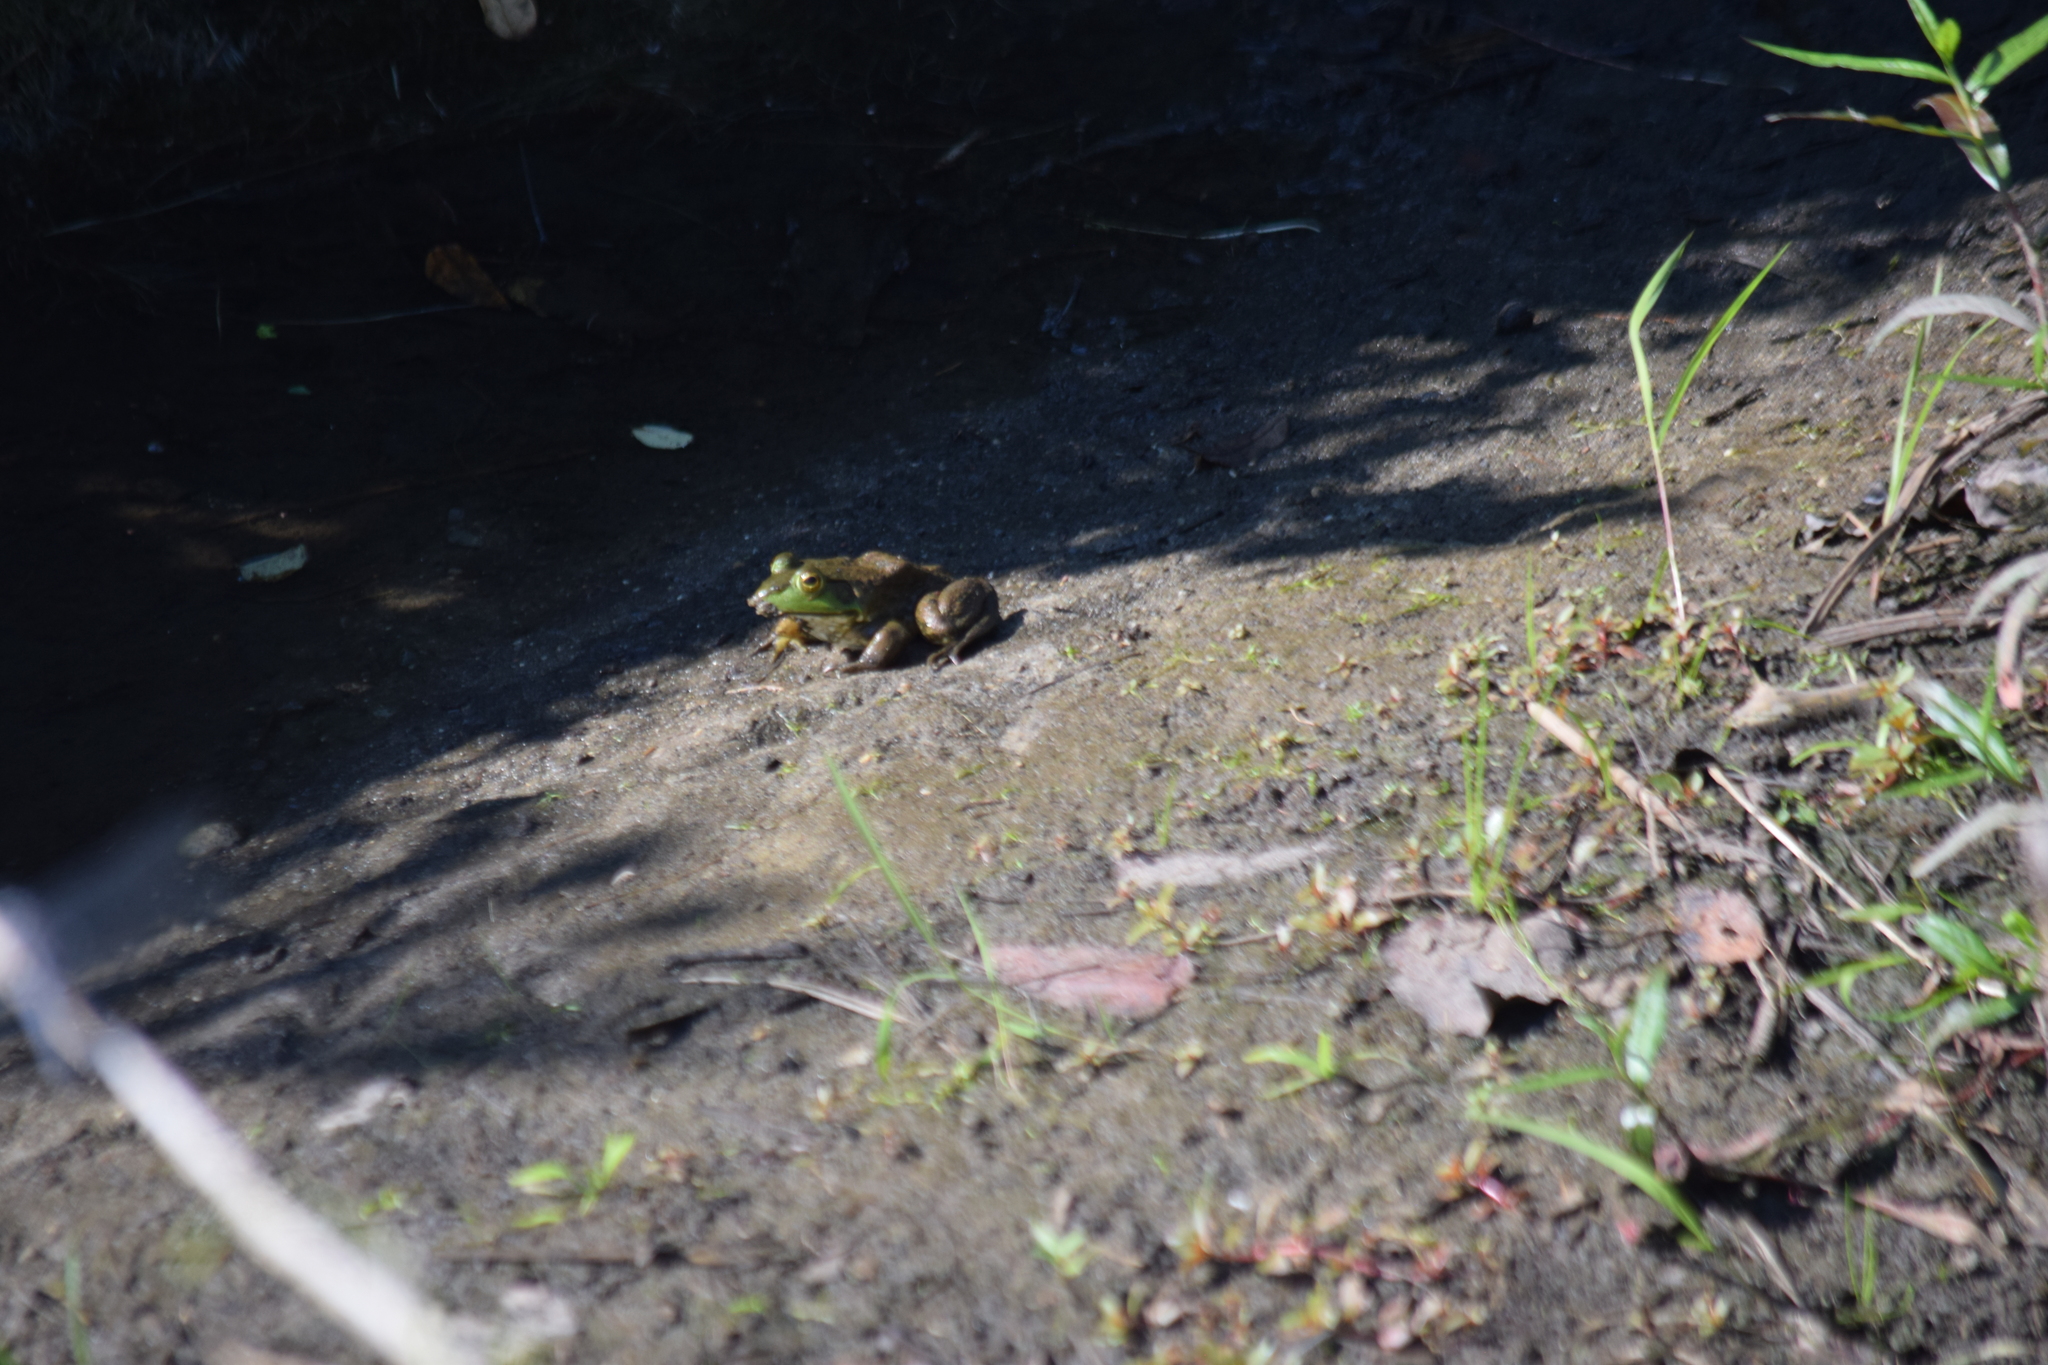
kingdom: Animalia
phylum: Chordata
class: Amphibia
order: Anura
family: Ranidae
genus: Lithobates
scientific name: Lithobates catesbeianus
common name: American bullfrog
